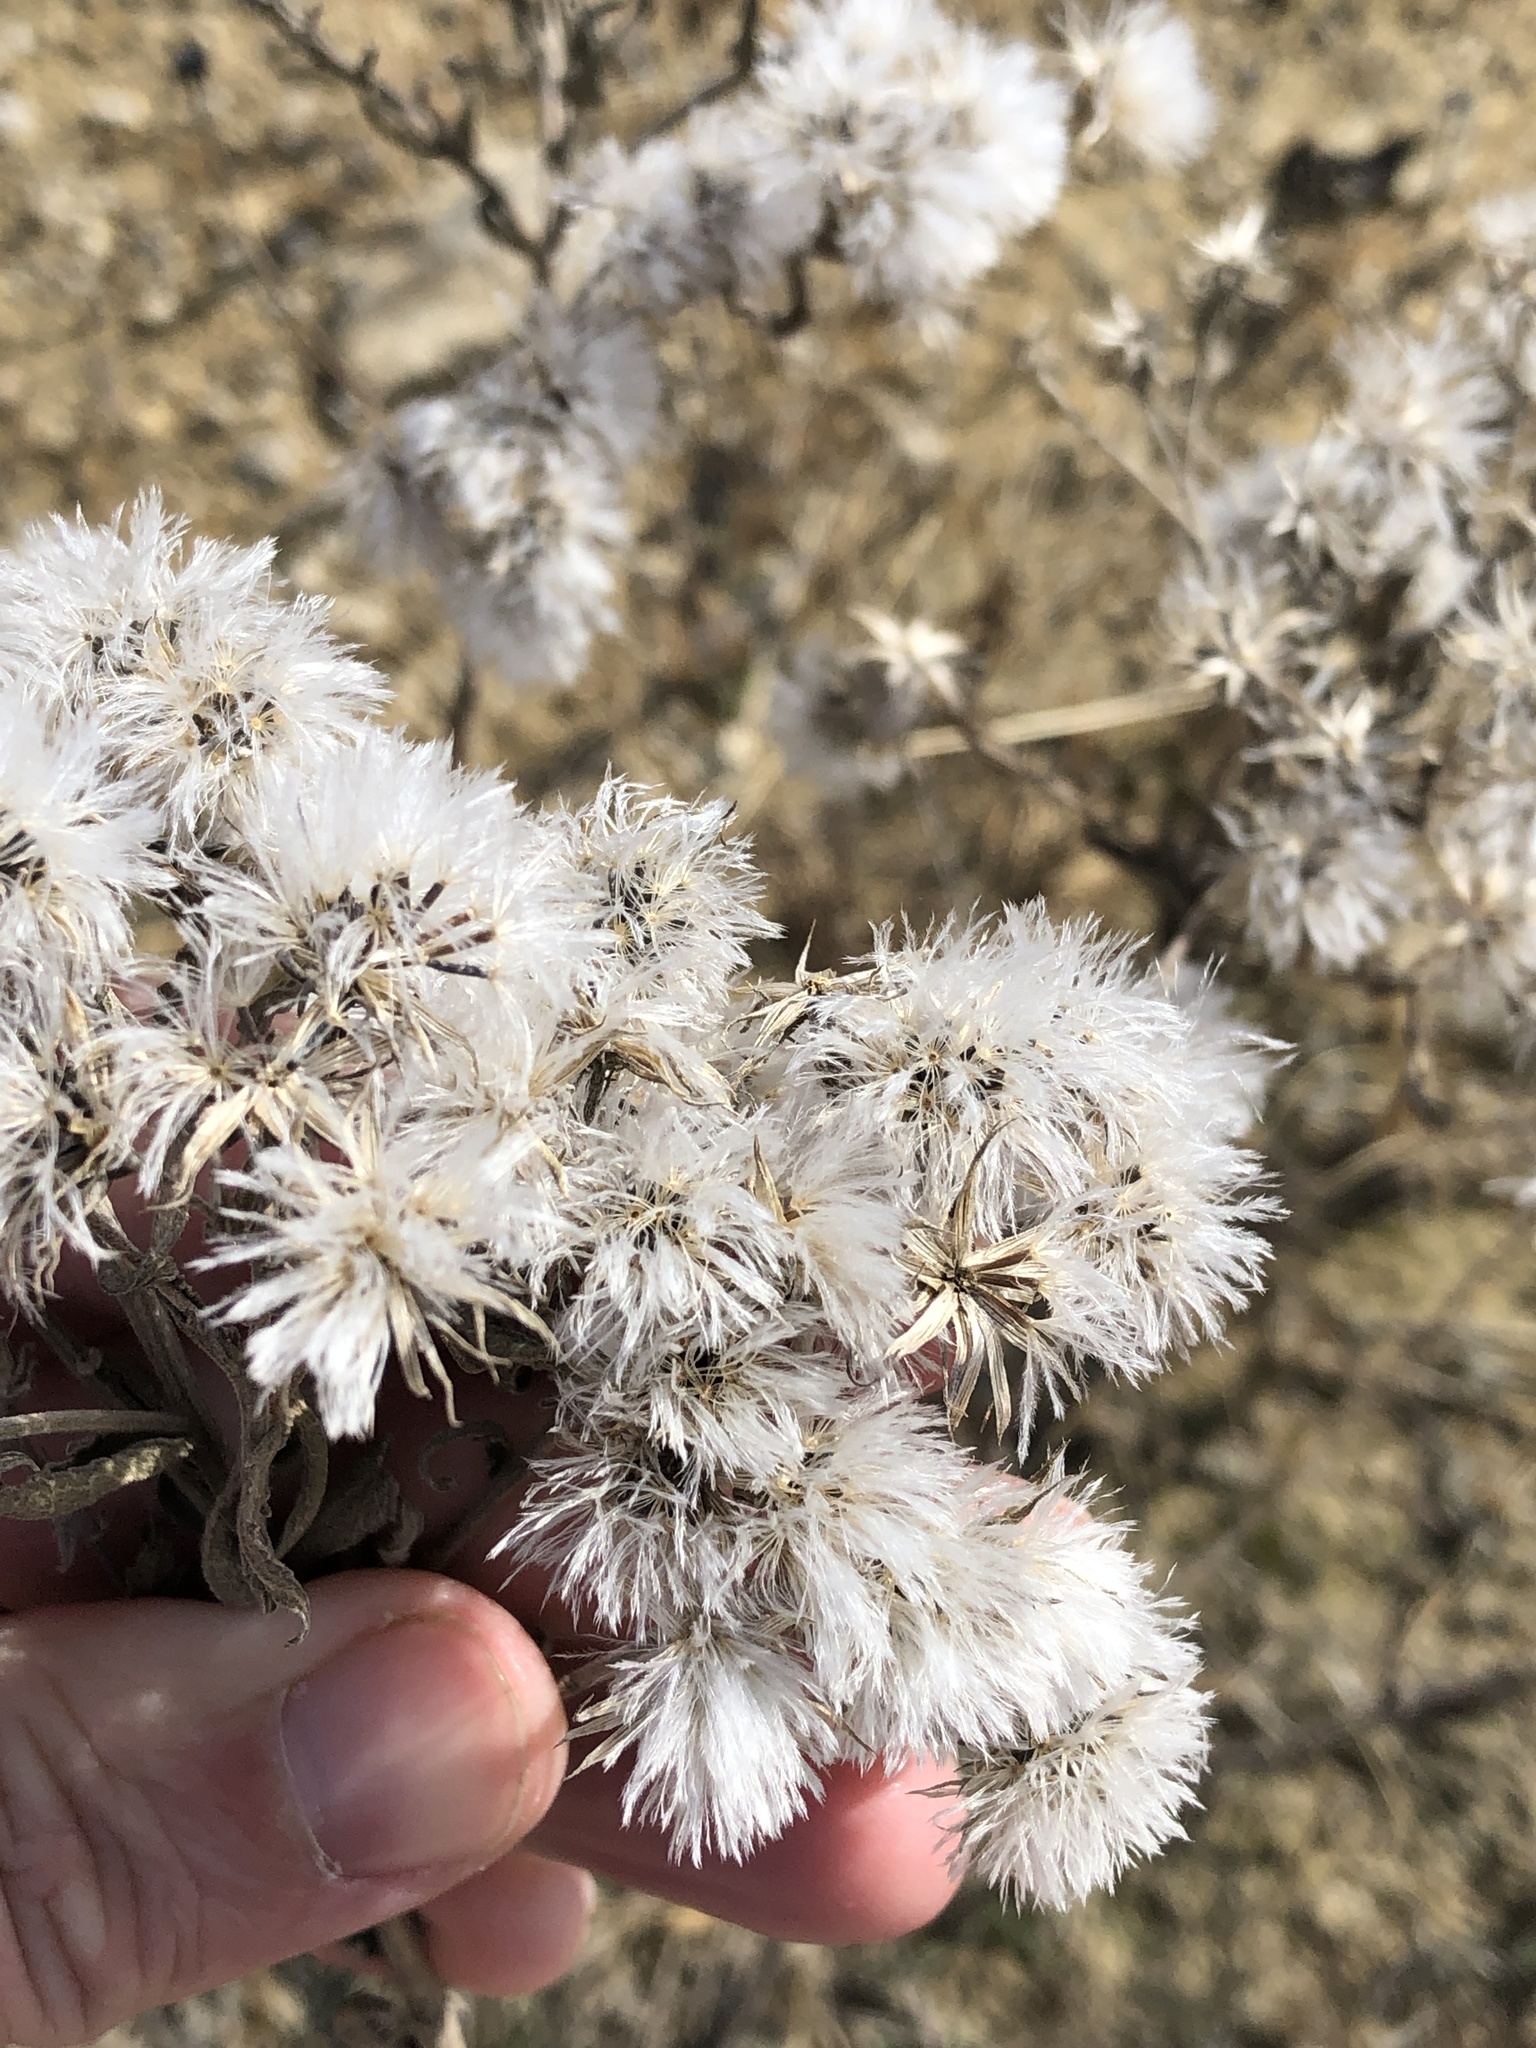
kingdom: Plantae
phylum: Tracheophyta
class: Magnoliopsida
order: Asterales
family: Asteraceae
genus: Brickellia
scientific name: Brickellia eupatorioides
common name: False boneset
